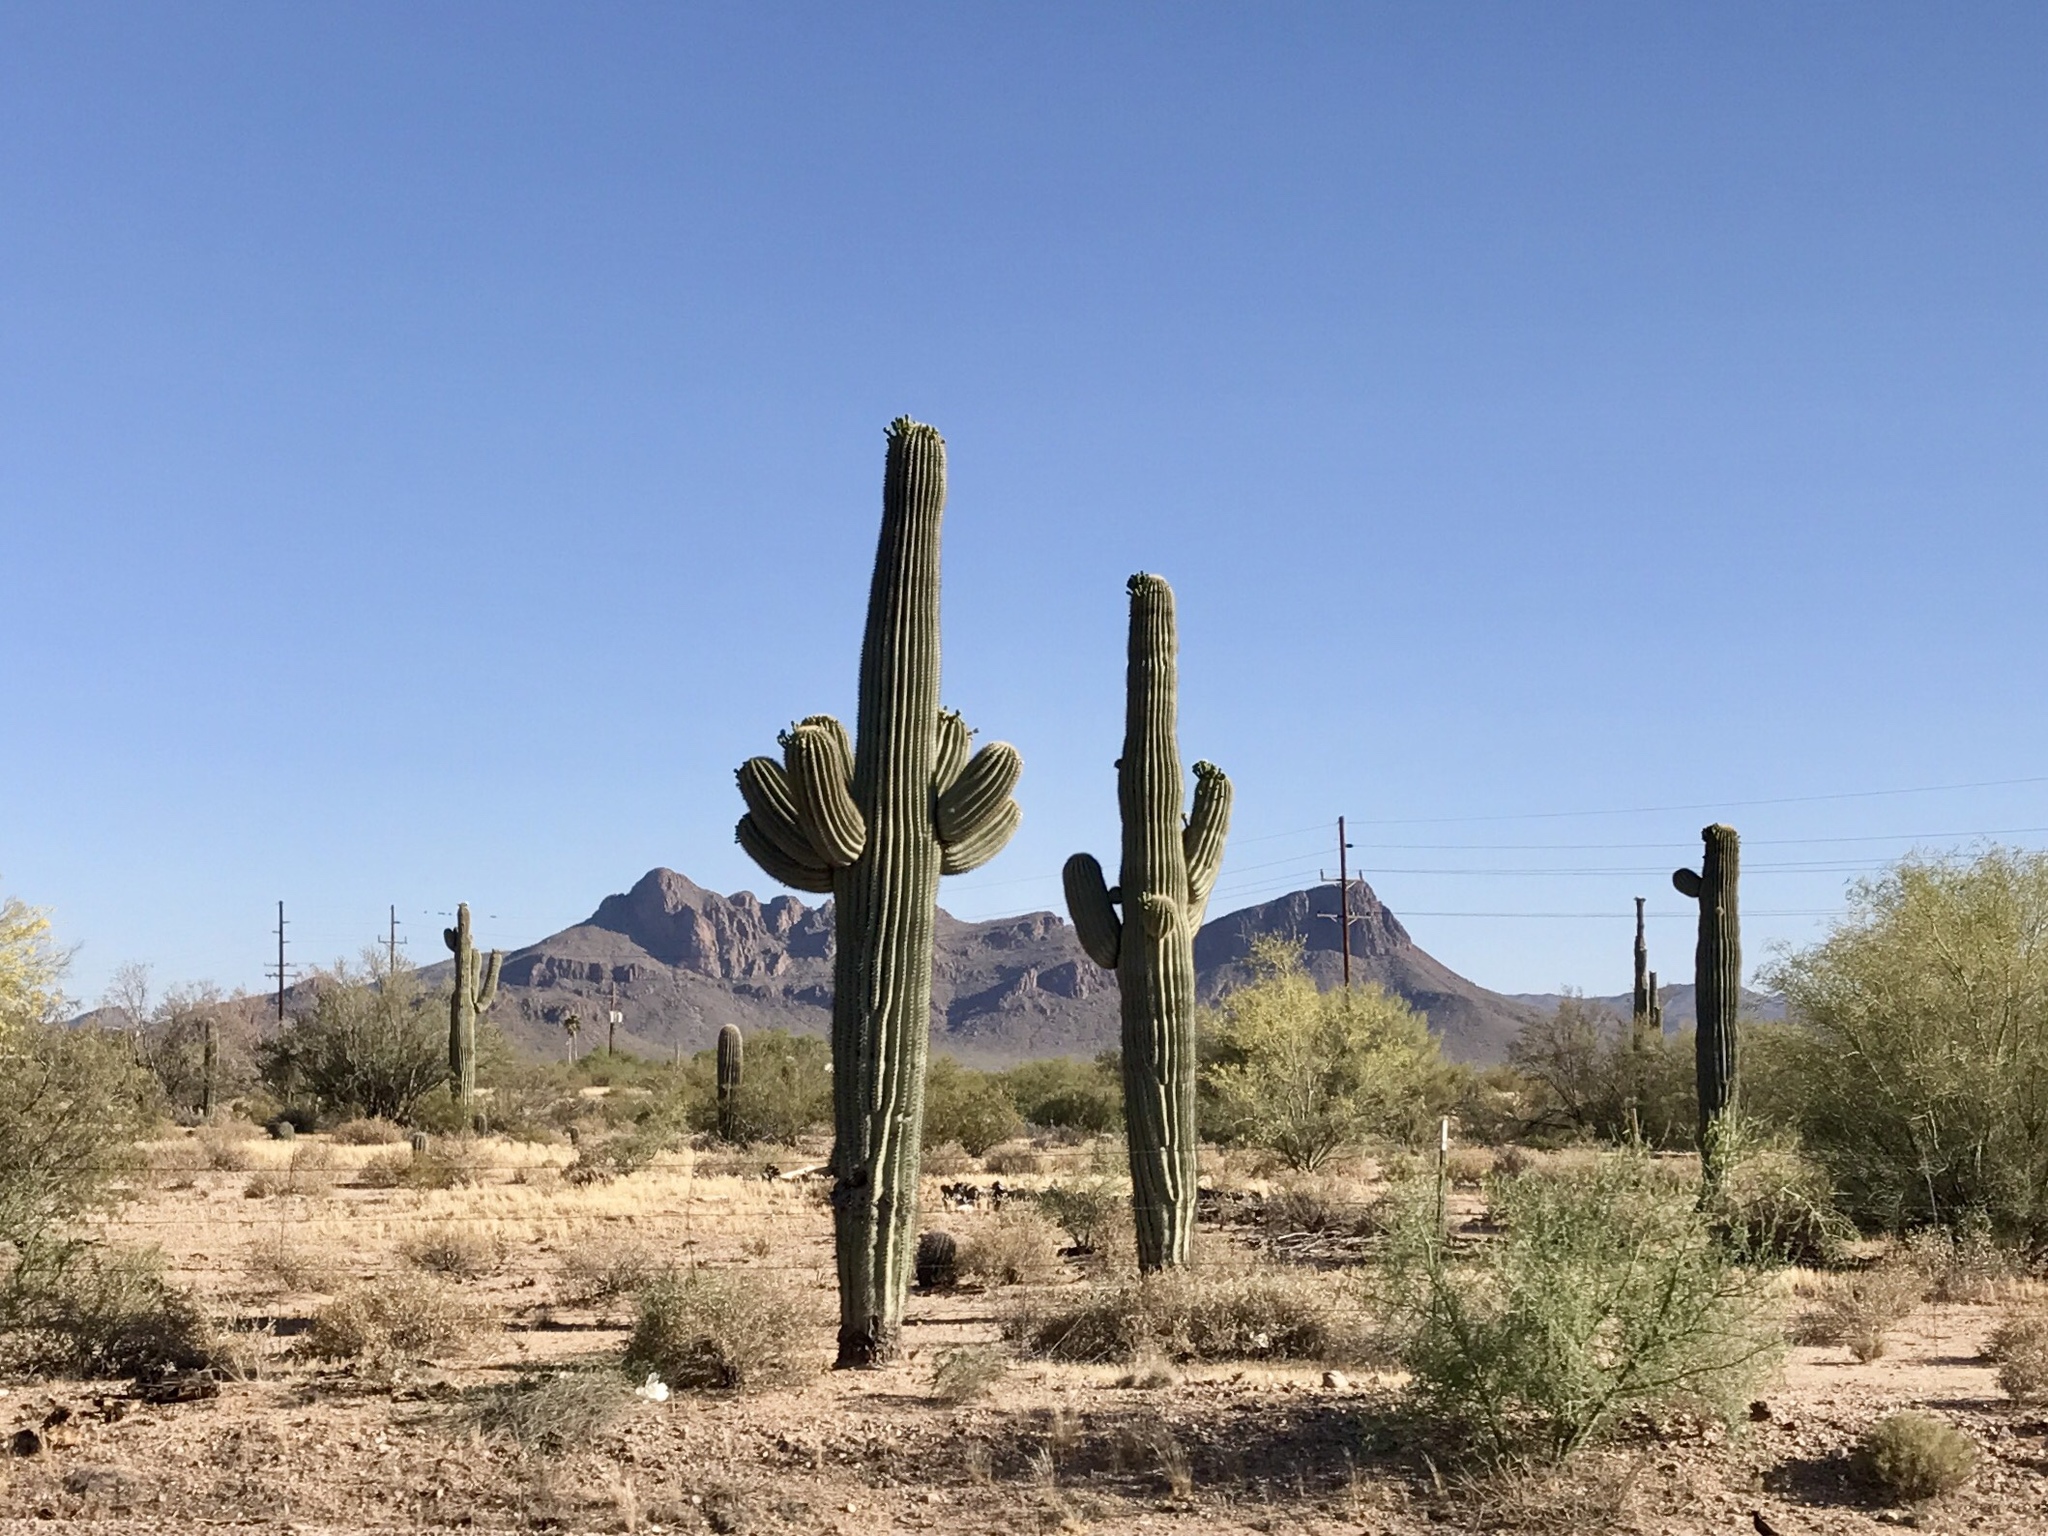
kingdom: Plantae
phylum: Tracheophyta
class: Magnoliopsida
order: Caryophyllales
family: Cactaceae
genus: Carnegiea
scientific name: Carnegiea gigantea
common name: Saguaro
